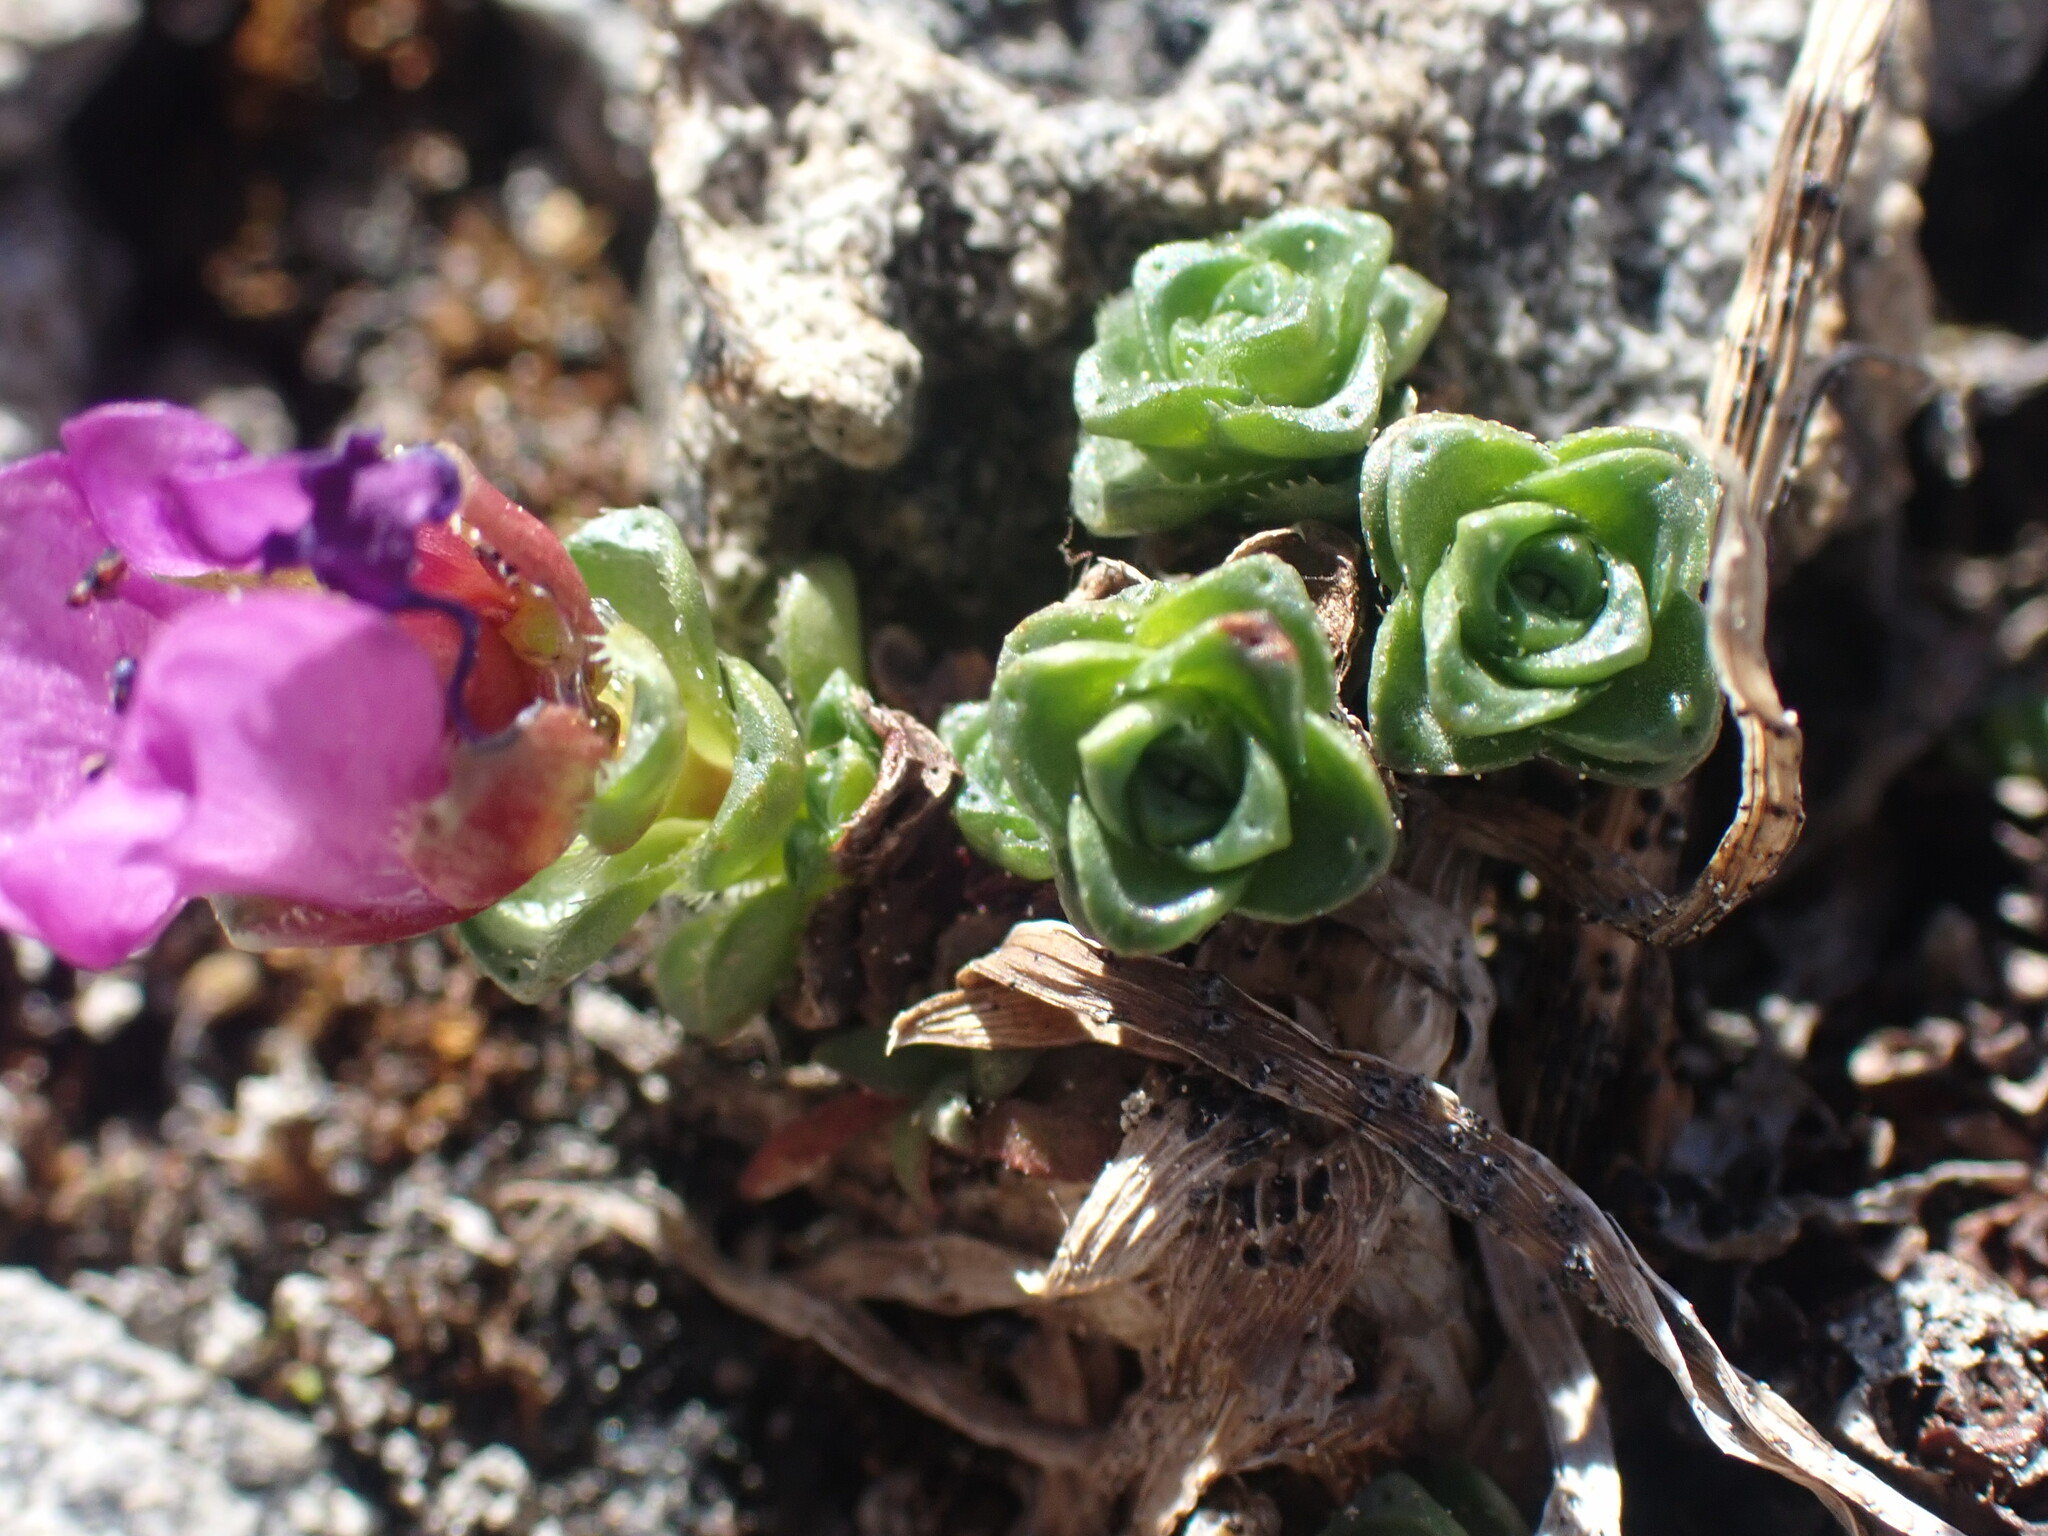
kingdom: Plantae
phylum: Tracheophyta
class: Magnoliopsida
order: Saxifragales
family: Saxifragaceae
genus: Saxifraga
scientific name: Saxifraga oppositifolia
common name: Purple saxifrage
